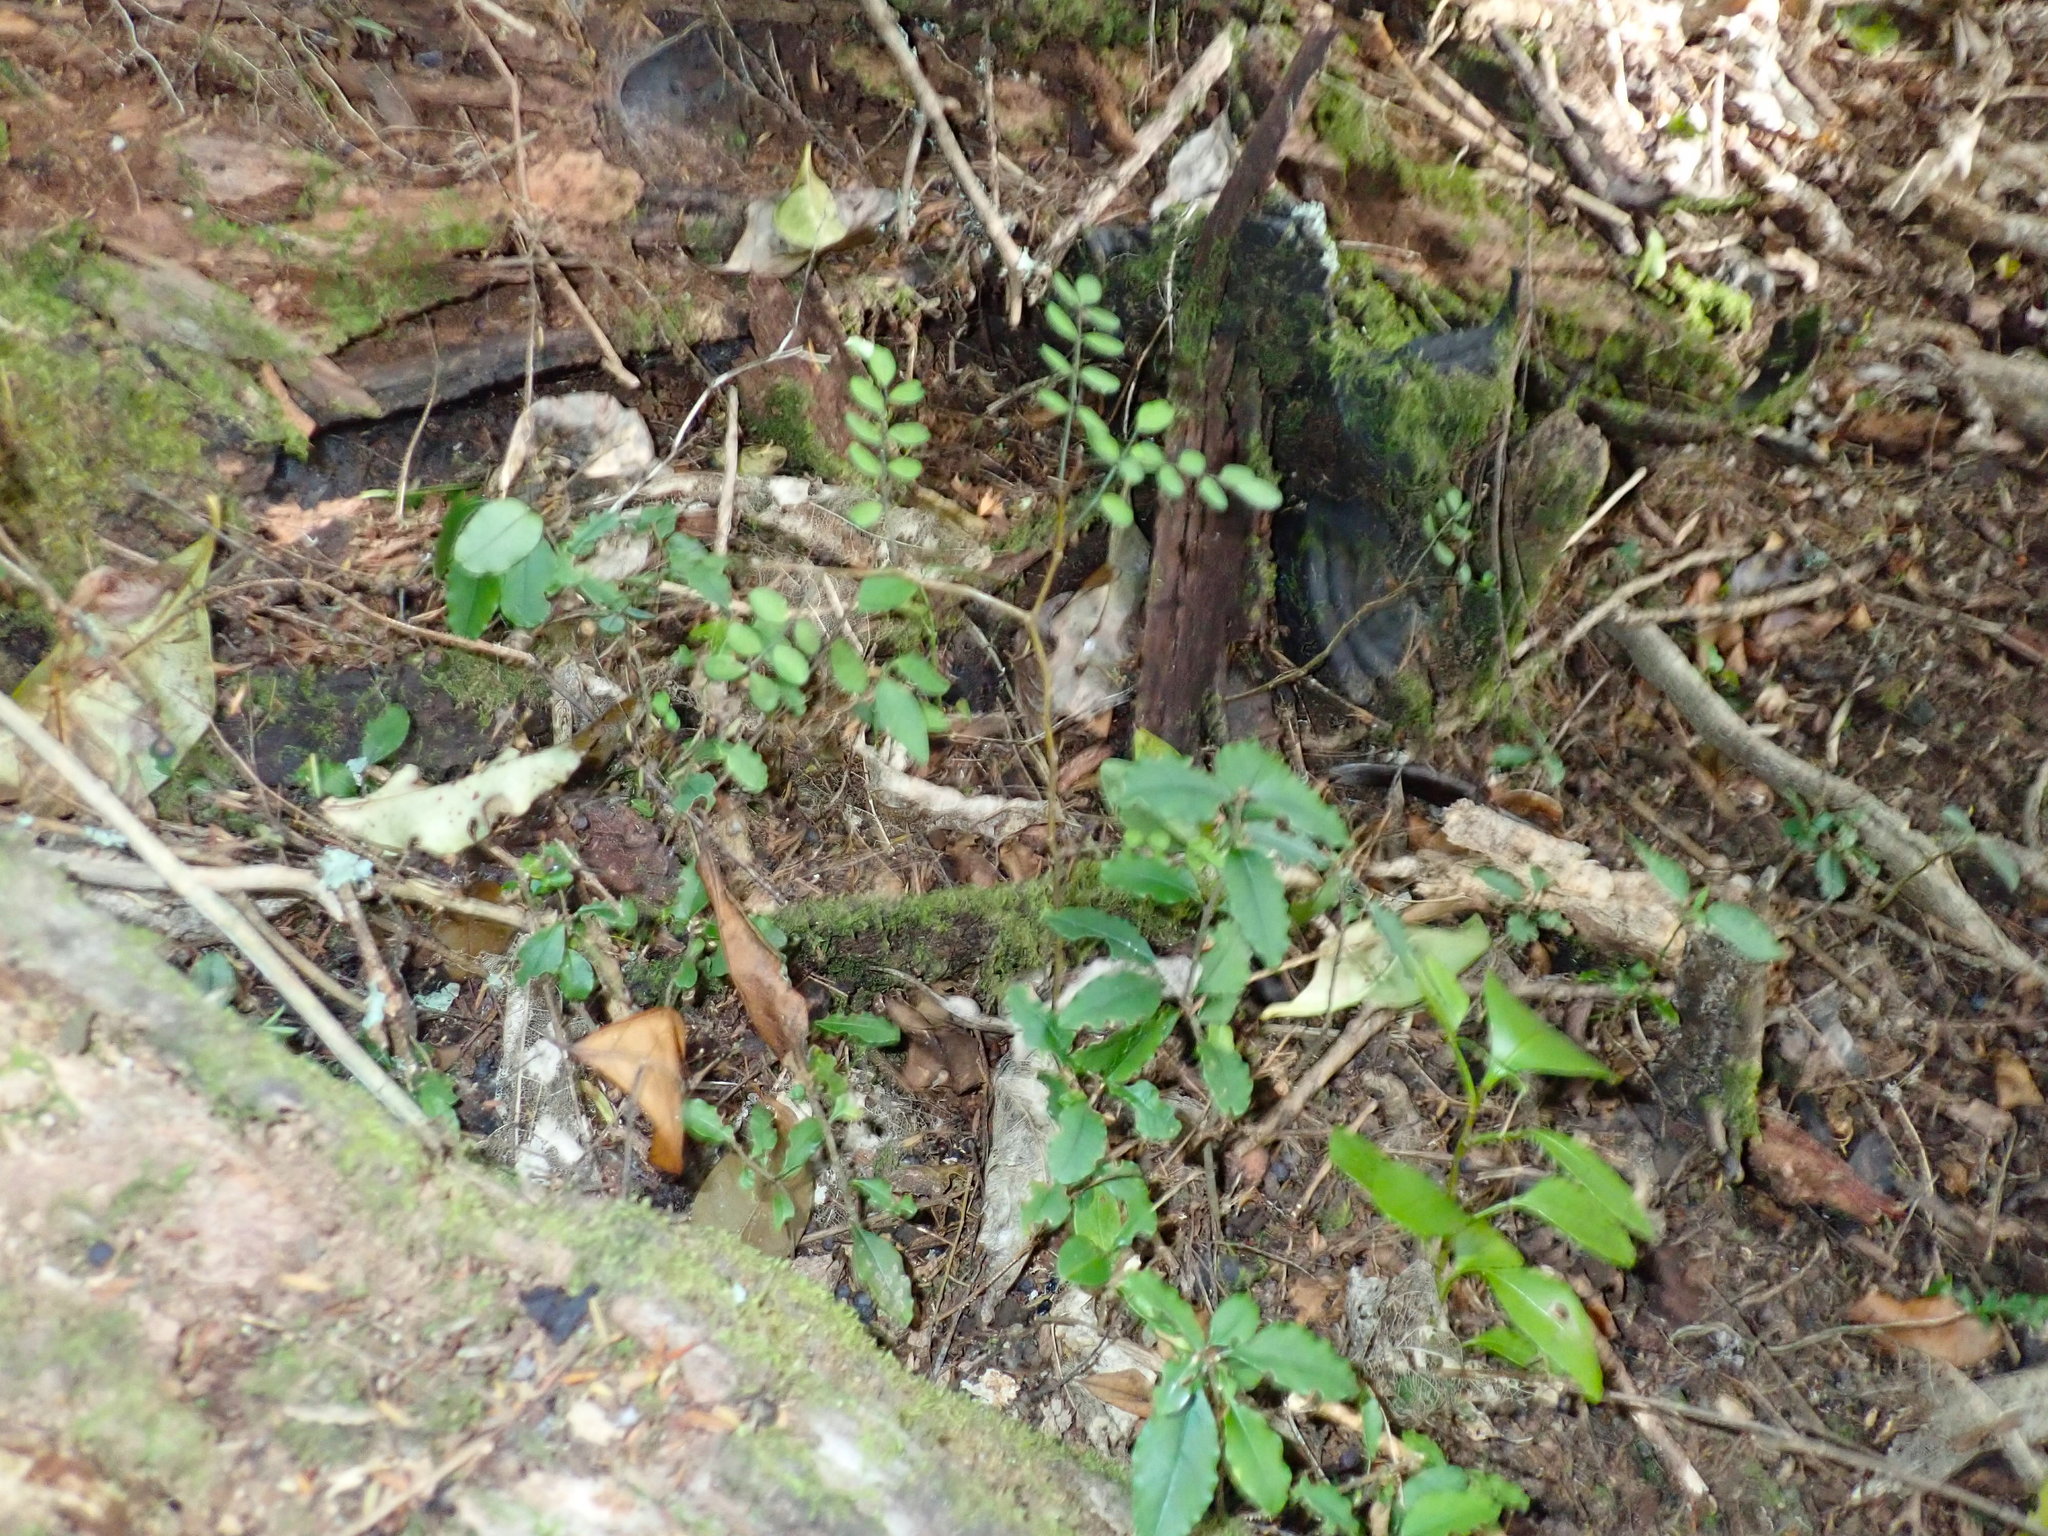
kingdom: Plantae
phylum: Tracheophyta
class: Magnoliopsida
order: Fabales
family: Fabaceae
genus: Sophora
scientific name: Sophora chathamica
